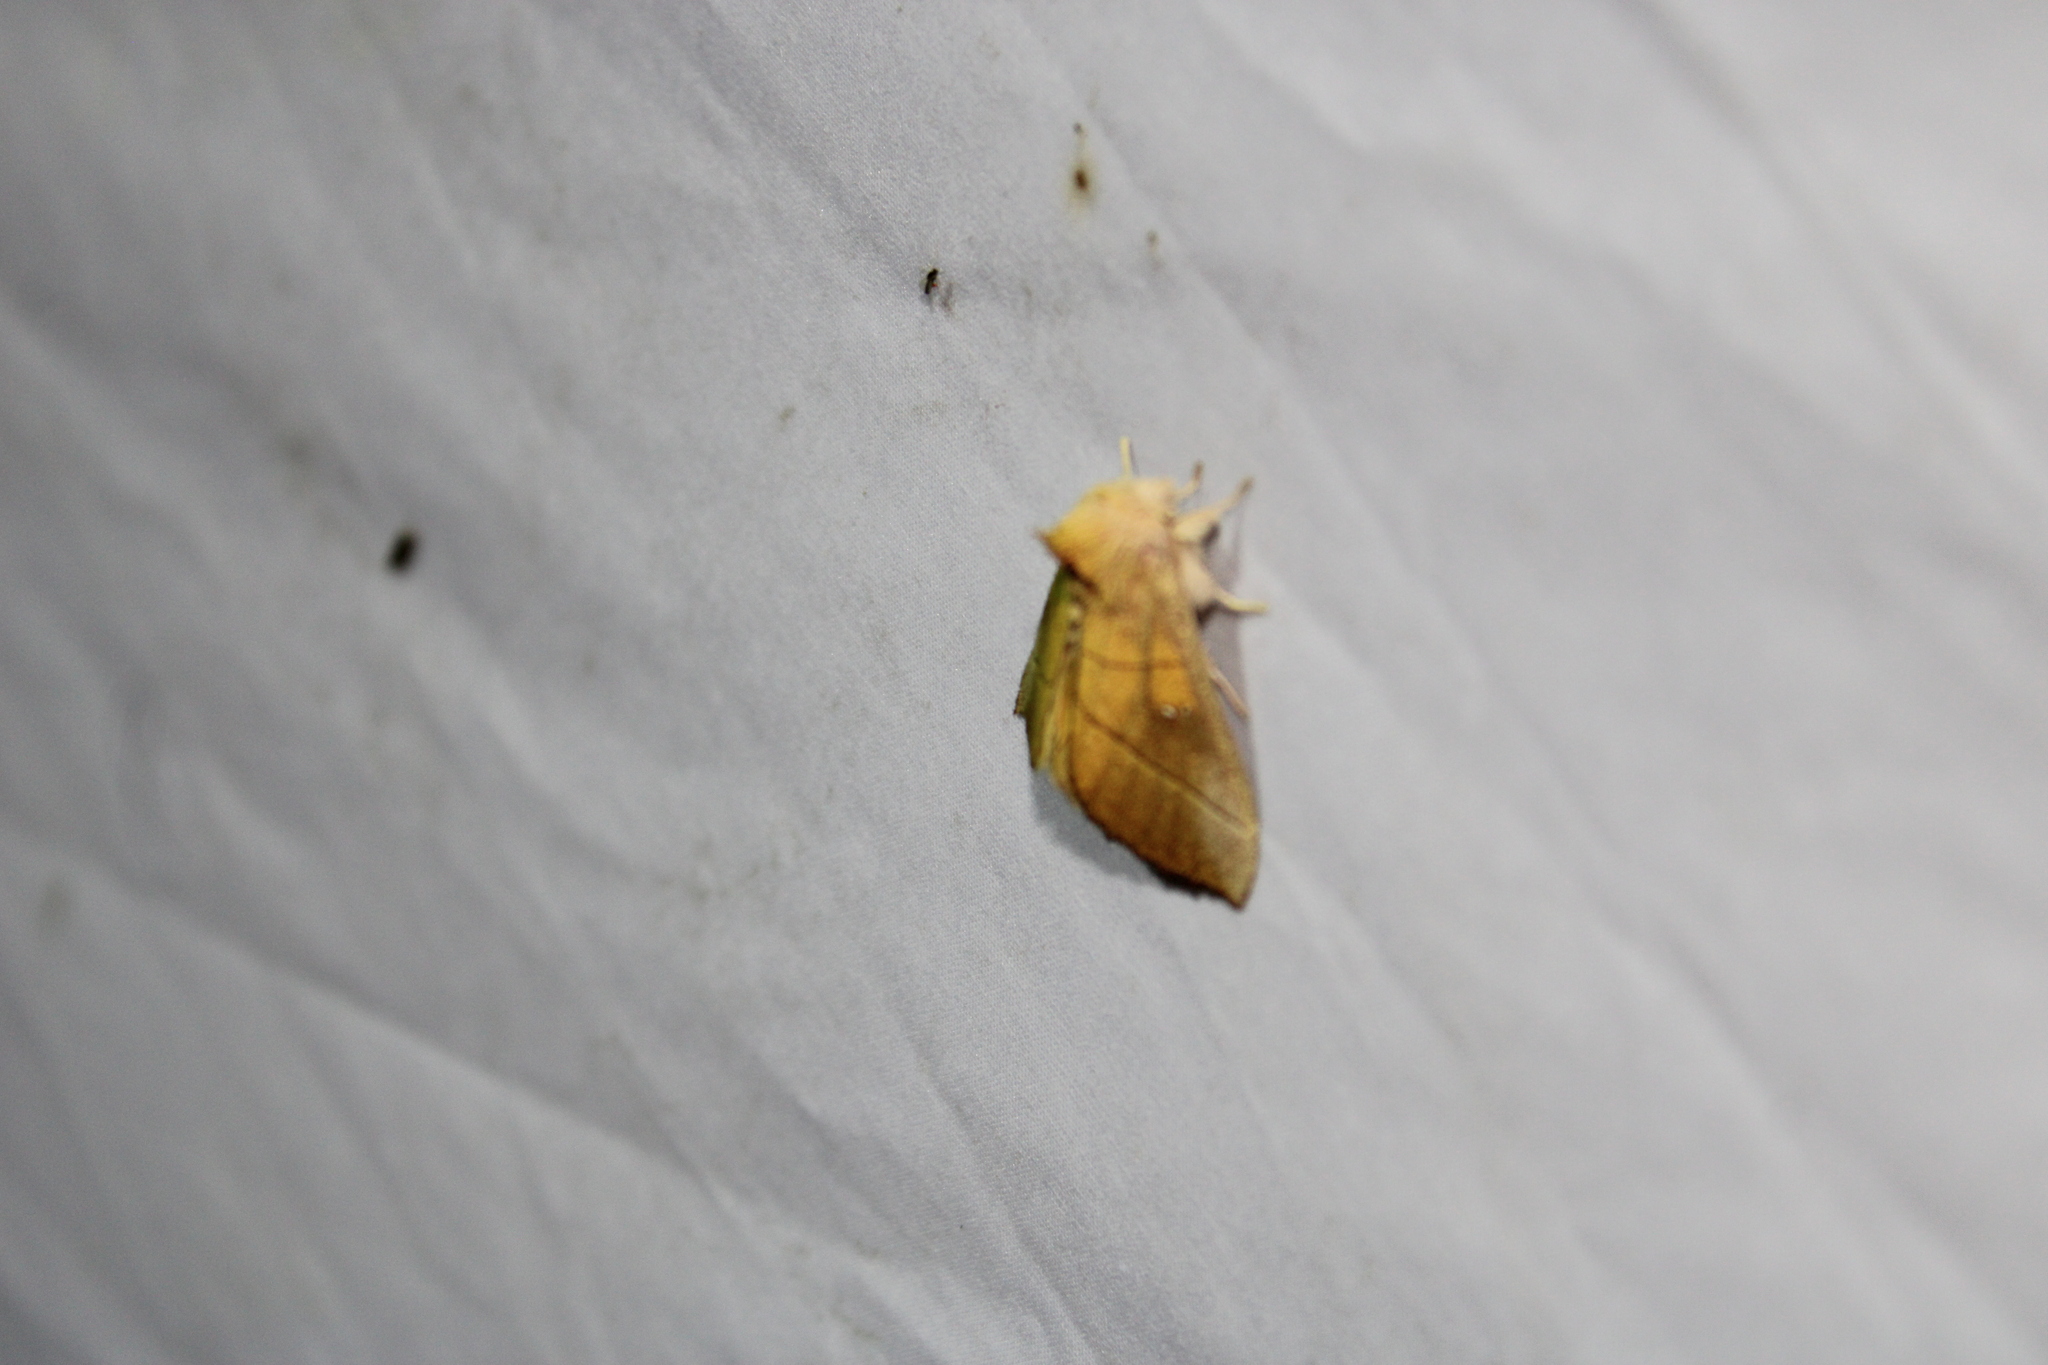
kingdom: Animalia
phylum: Arthropoda
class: Insecta
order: Lepidoptera
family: Notodontidae
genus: Nadata
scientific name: Nadata gibbosa
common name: White-dotted prominent
